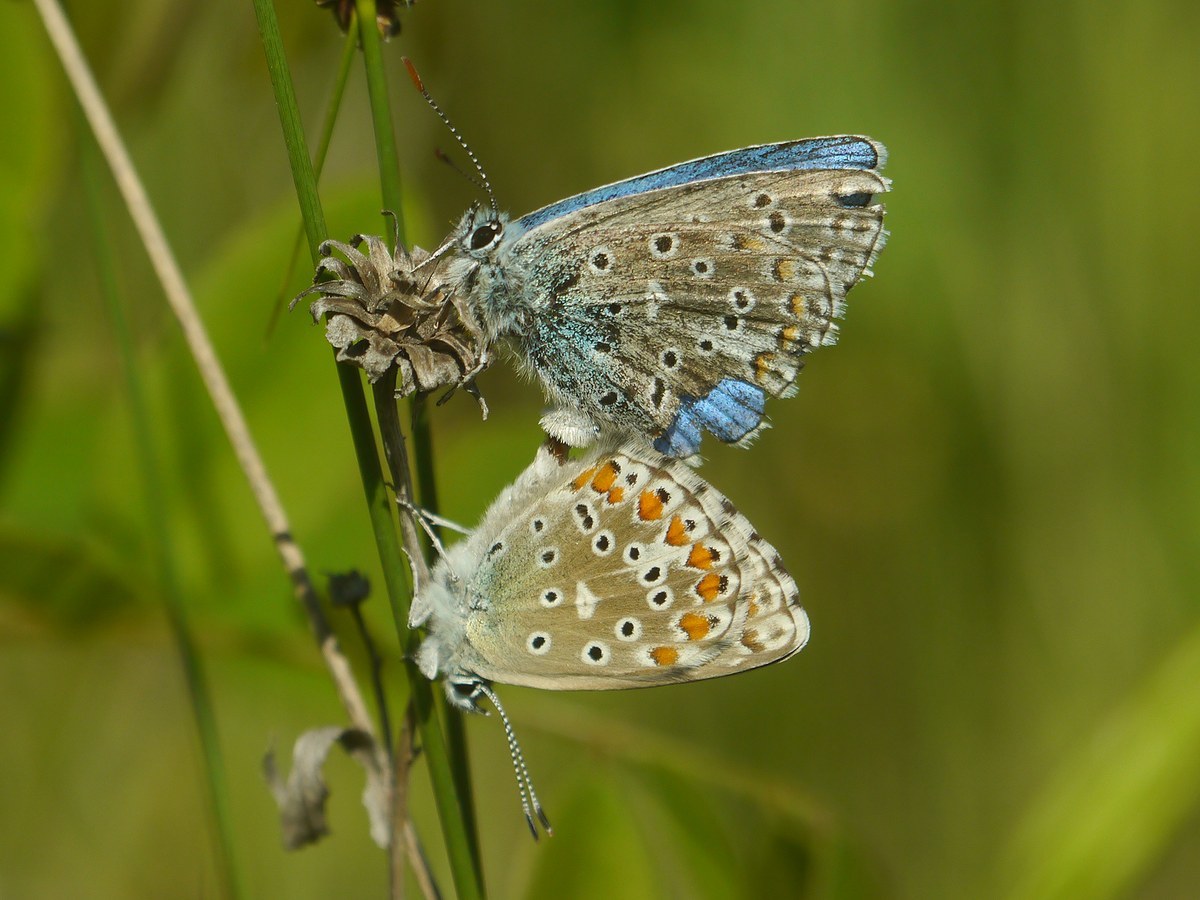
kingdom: Animalia
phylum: Arthropoda
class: Insecta
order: Lepidoptera
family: Lycaenidae
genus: Lysandra
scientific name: Lysandra bellargus
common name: Adonis blue
